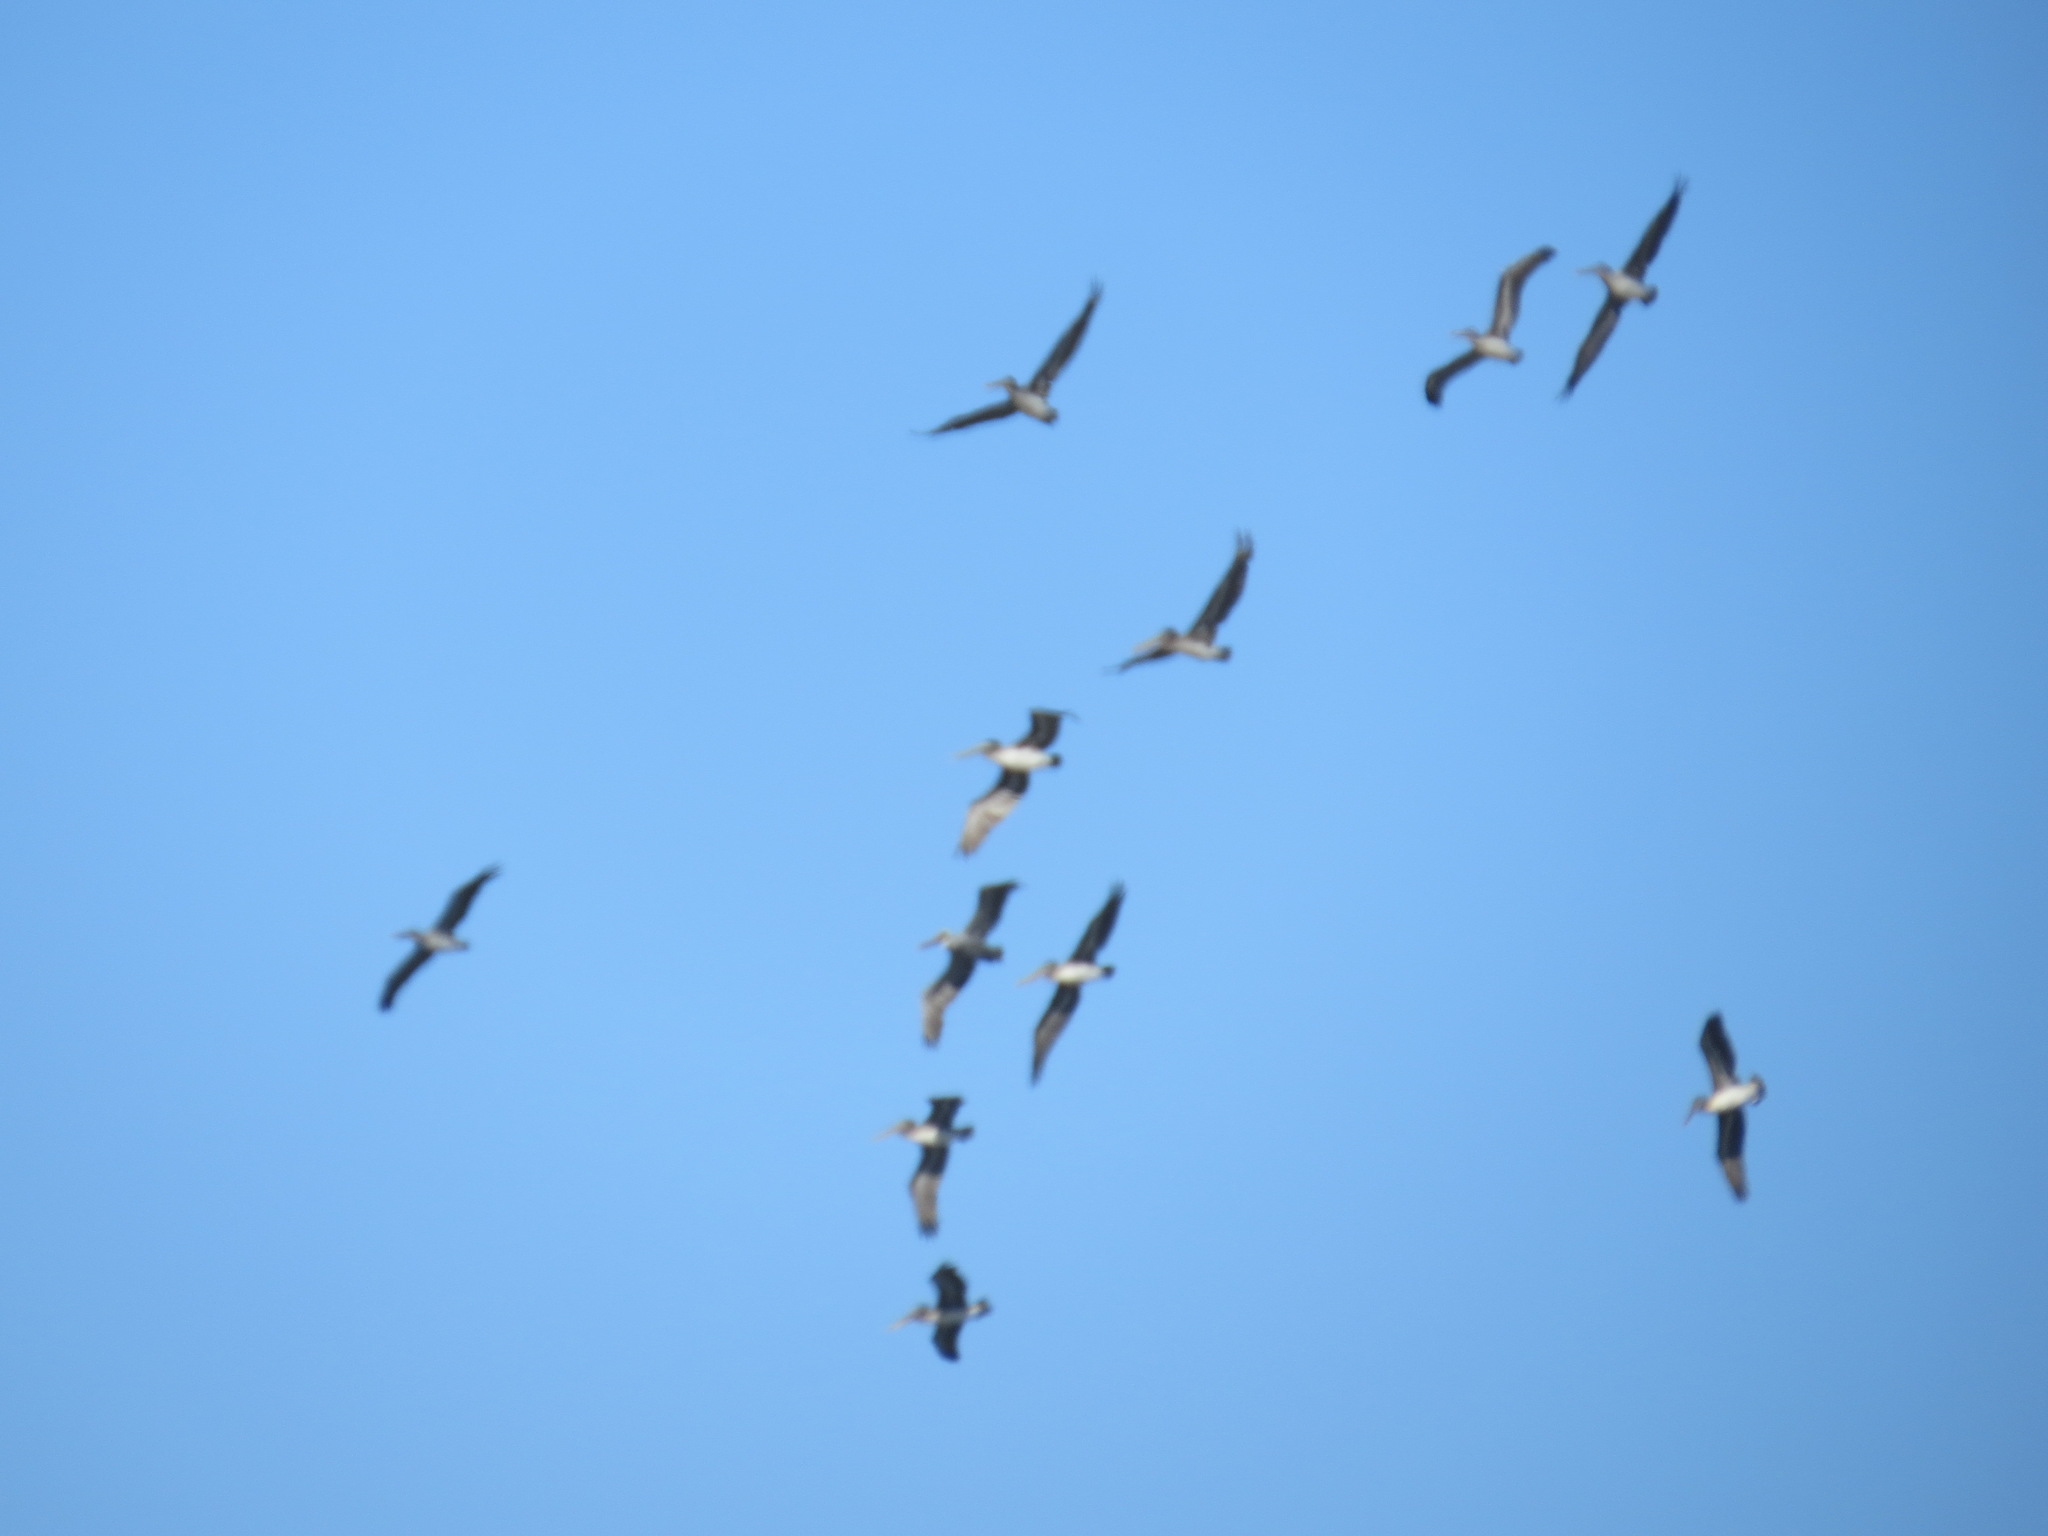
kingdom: Animalia
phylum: Chordata
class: Aves
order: Pelecaniformes
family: Pelecanidae
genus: Pelecanus
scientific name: Pelecanus occidentalis
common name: Brown pelican
